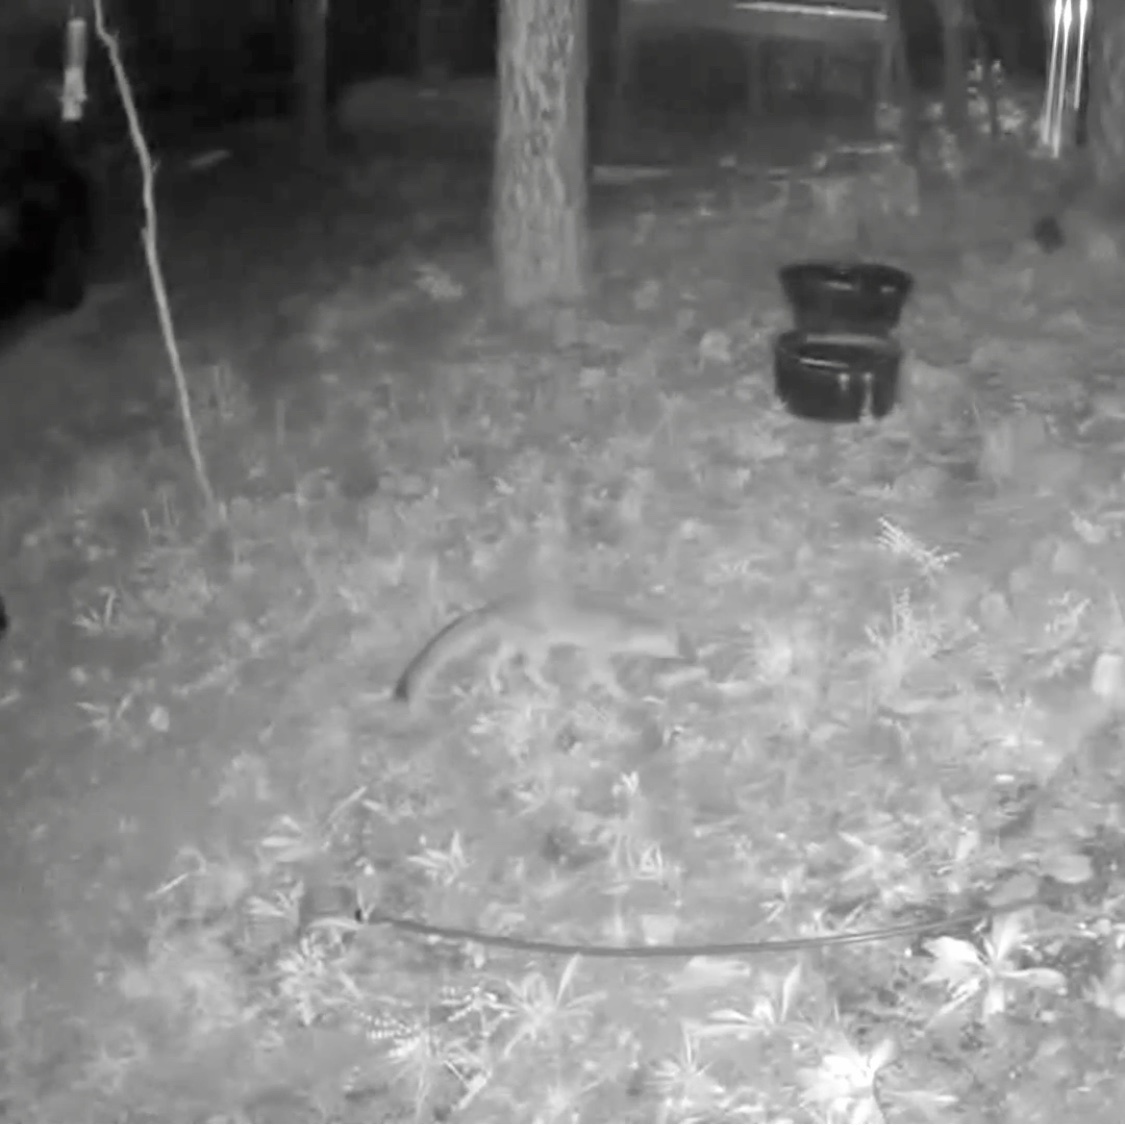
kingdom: Animalia
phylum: Chordata
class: Mammalia
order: Carnivora
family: Canidae
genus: Urocyon
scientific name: Urocyon cinereoargenteus
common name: Gray fox
